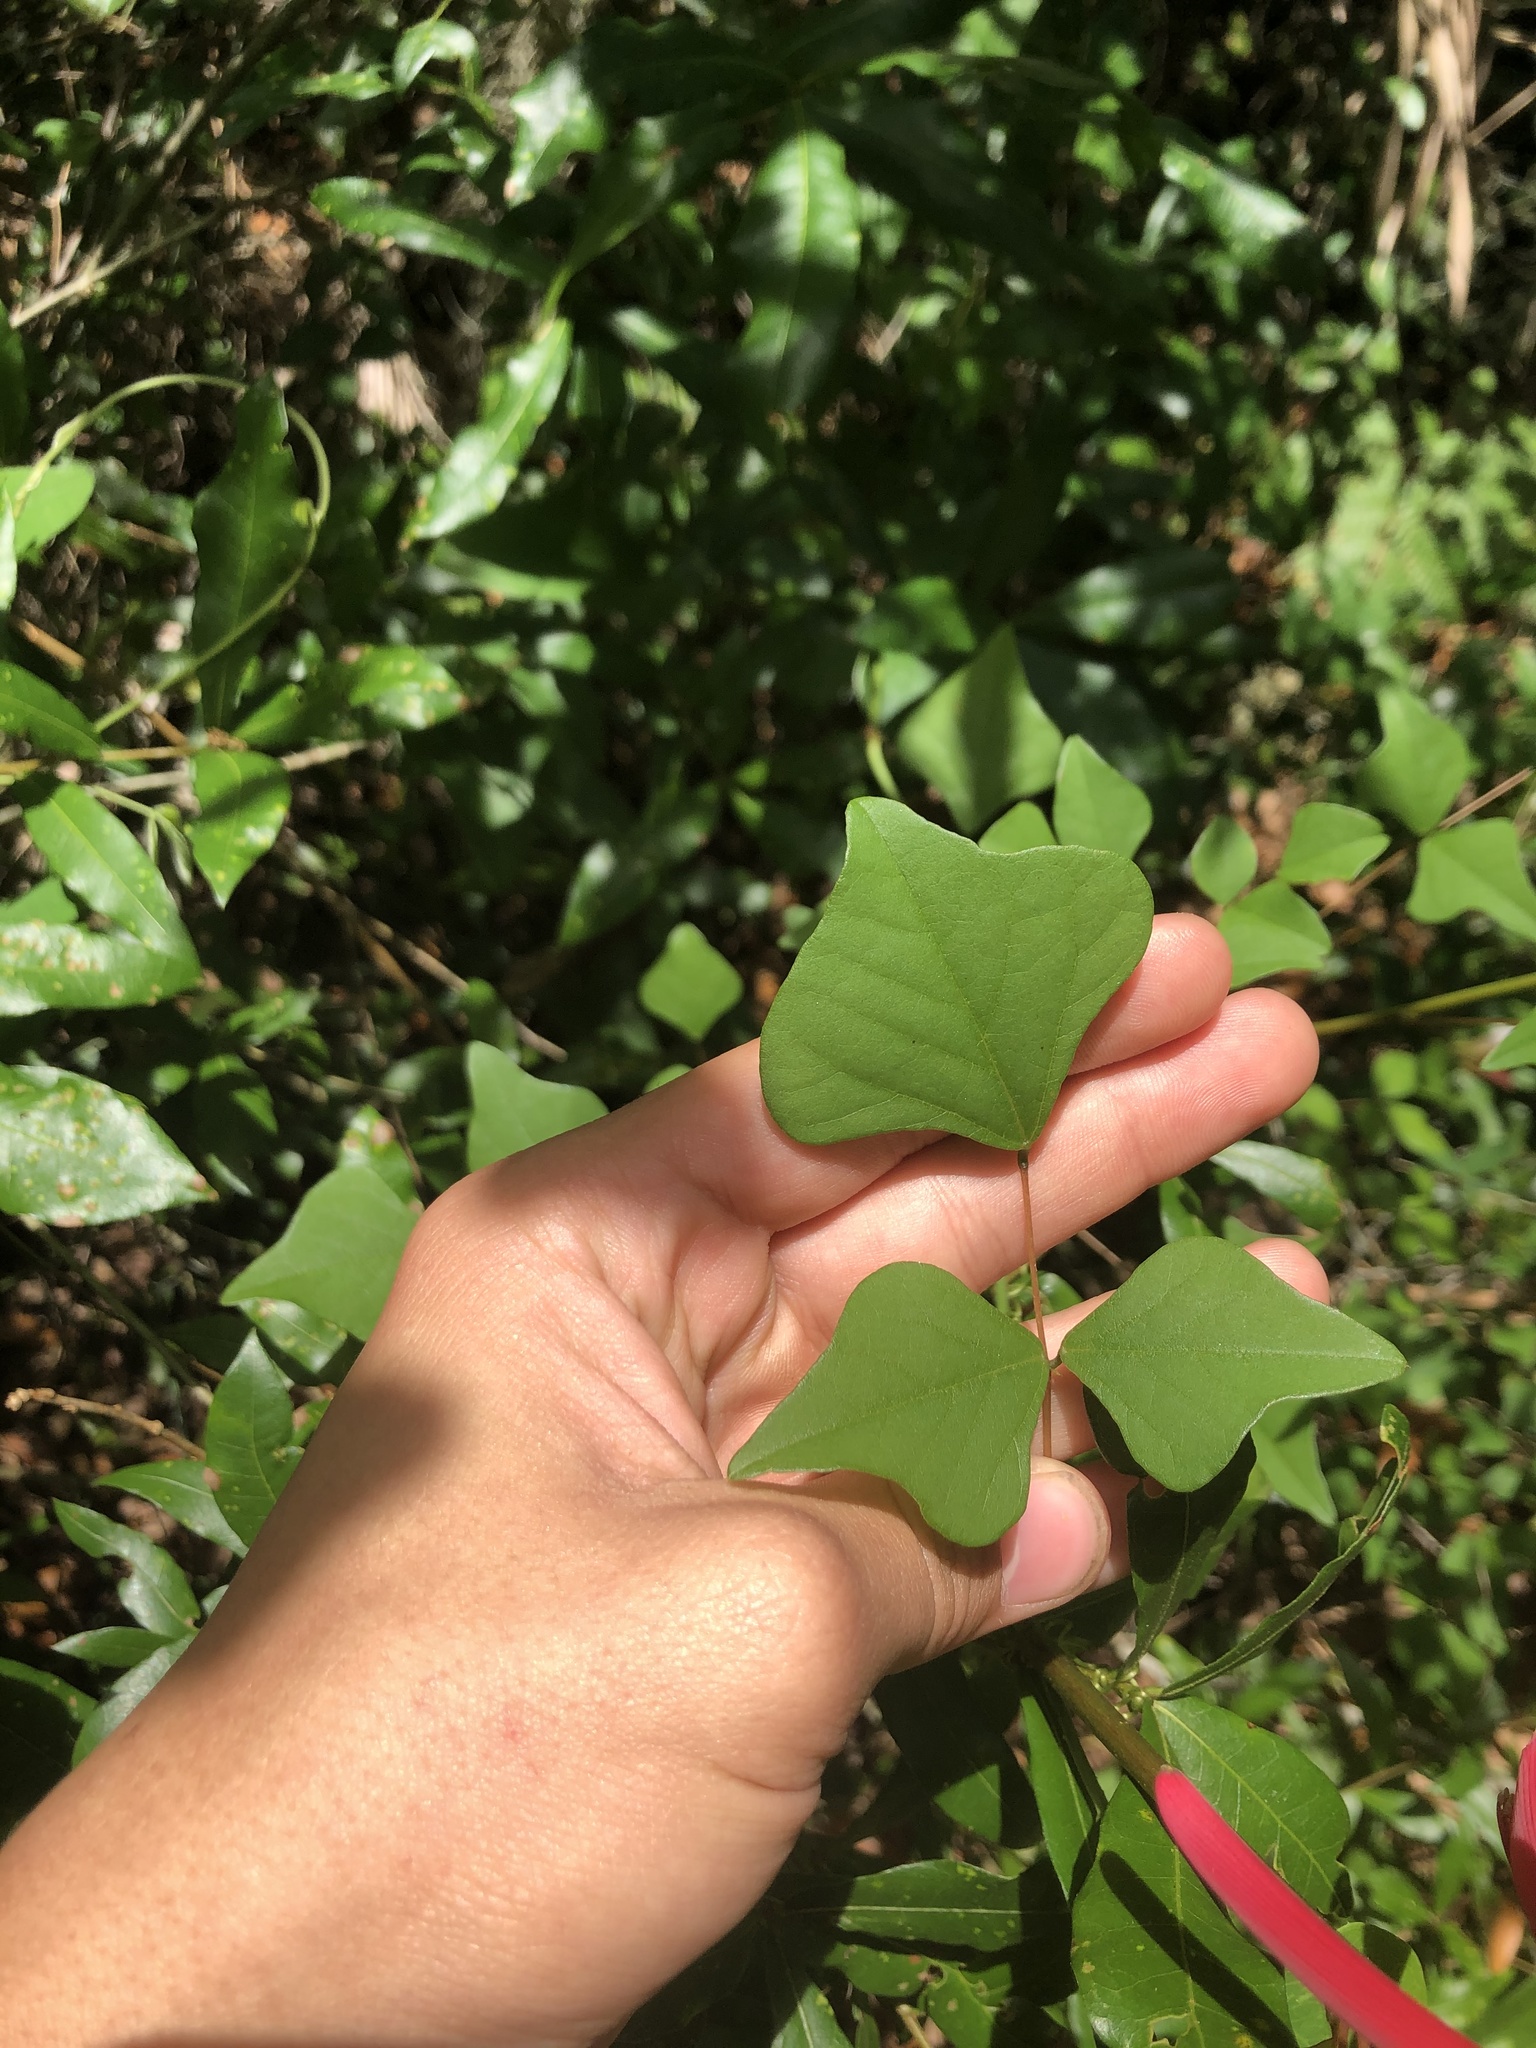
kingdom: Plantae
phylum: Tracheophyta
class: Magnoliopsida
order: Fabales
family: Fabaceae
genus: Erythrina
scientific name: Erythrina herbacea
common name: Coral-bean
